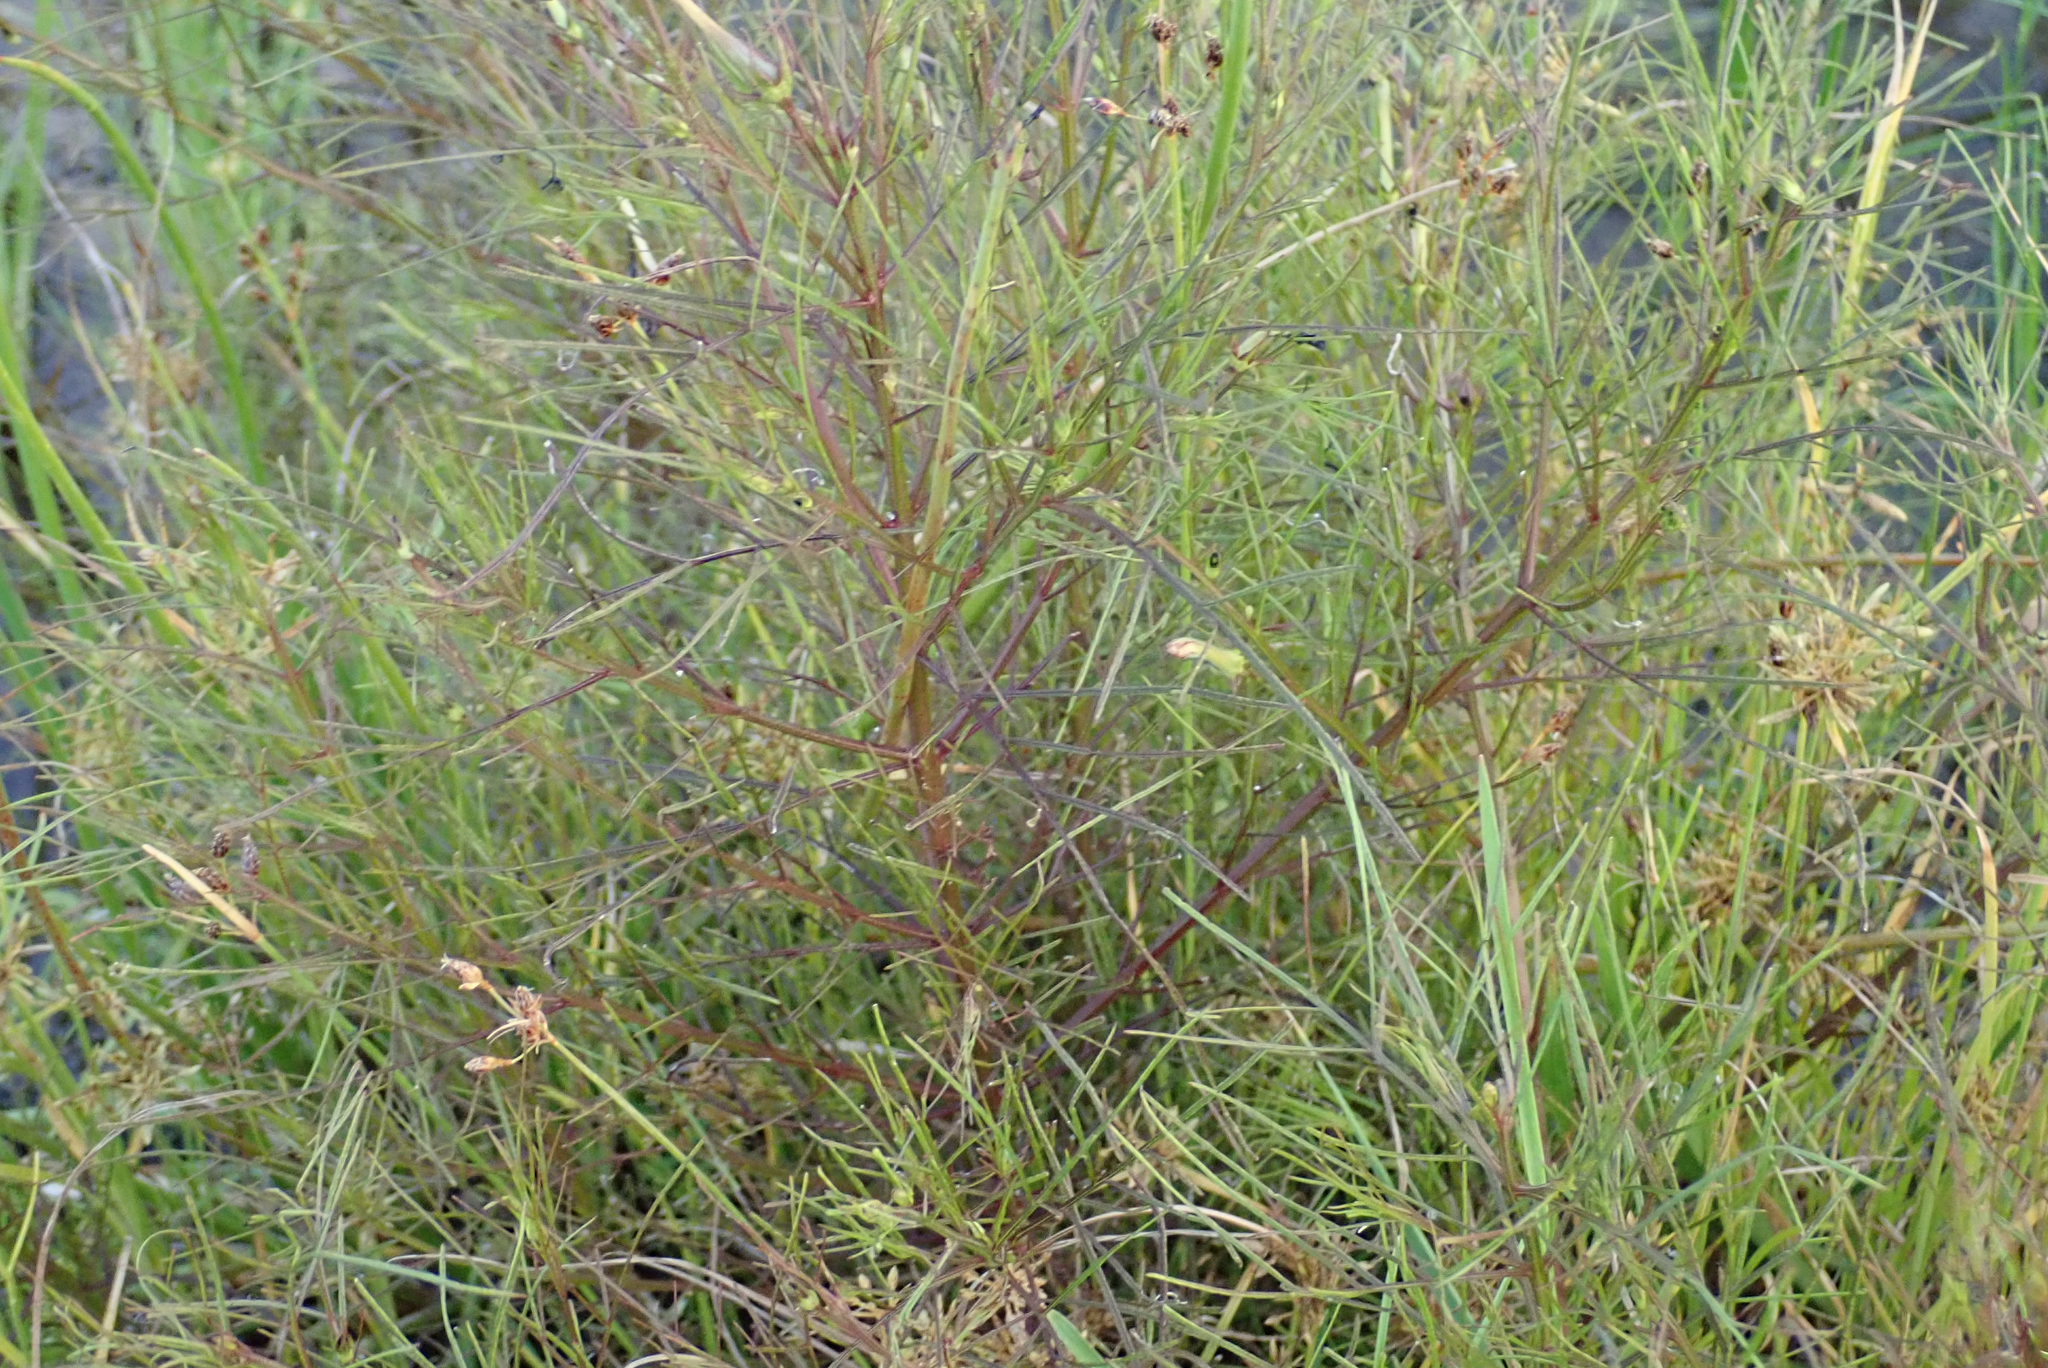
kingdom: Plantae
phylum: Tracheophyta
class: Magnoliopsida
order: Lamiales
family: Orobanchaceae
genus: Rhamphicarpa
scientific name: Rhamphicarpa fistulosa
